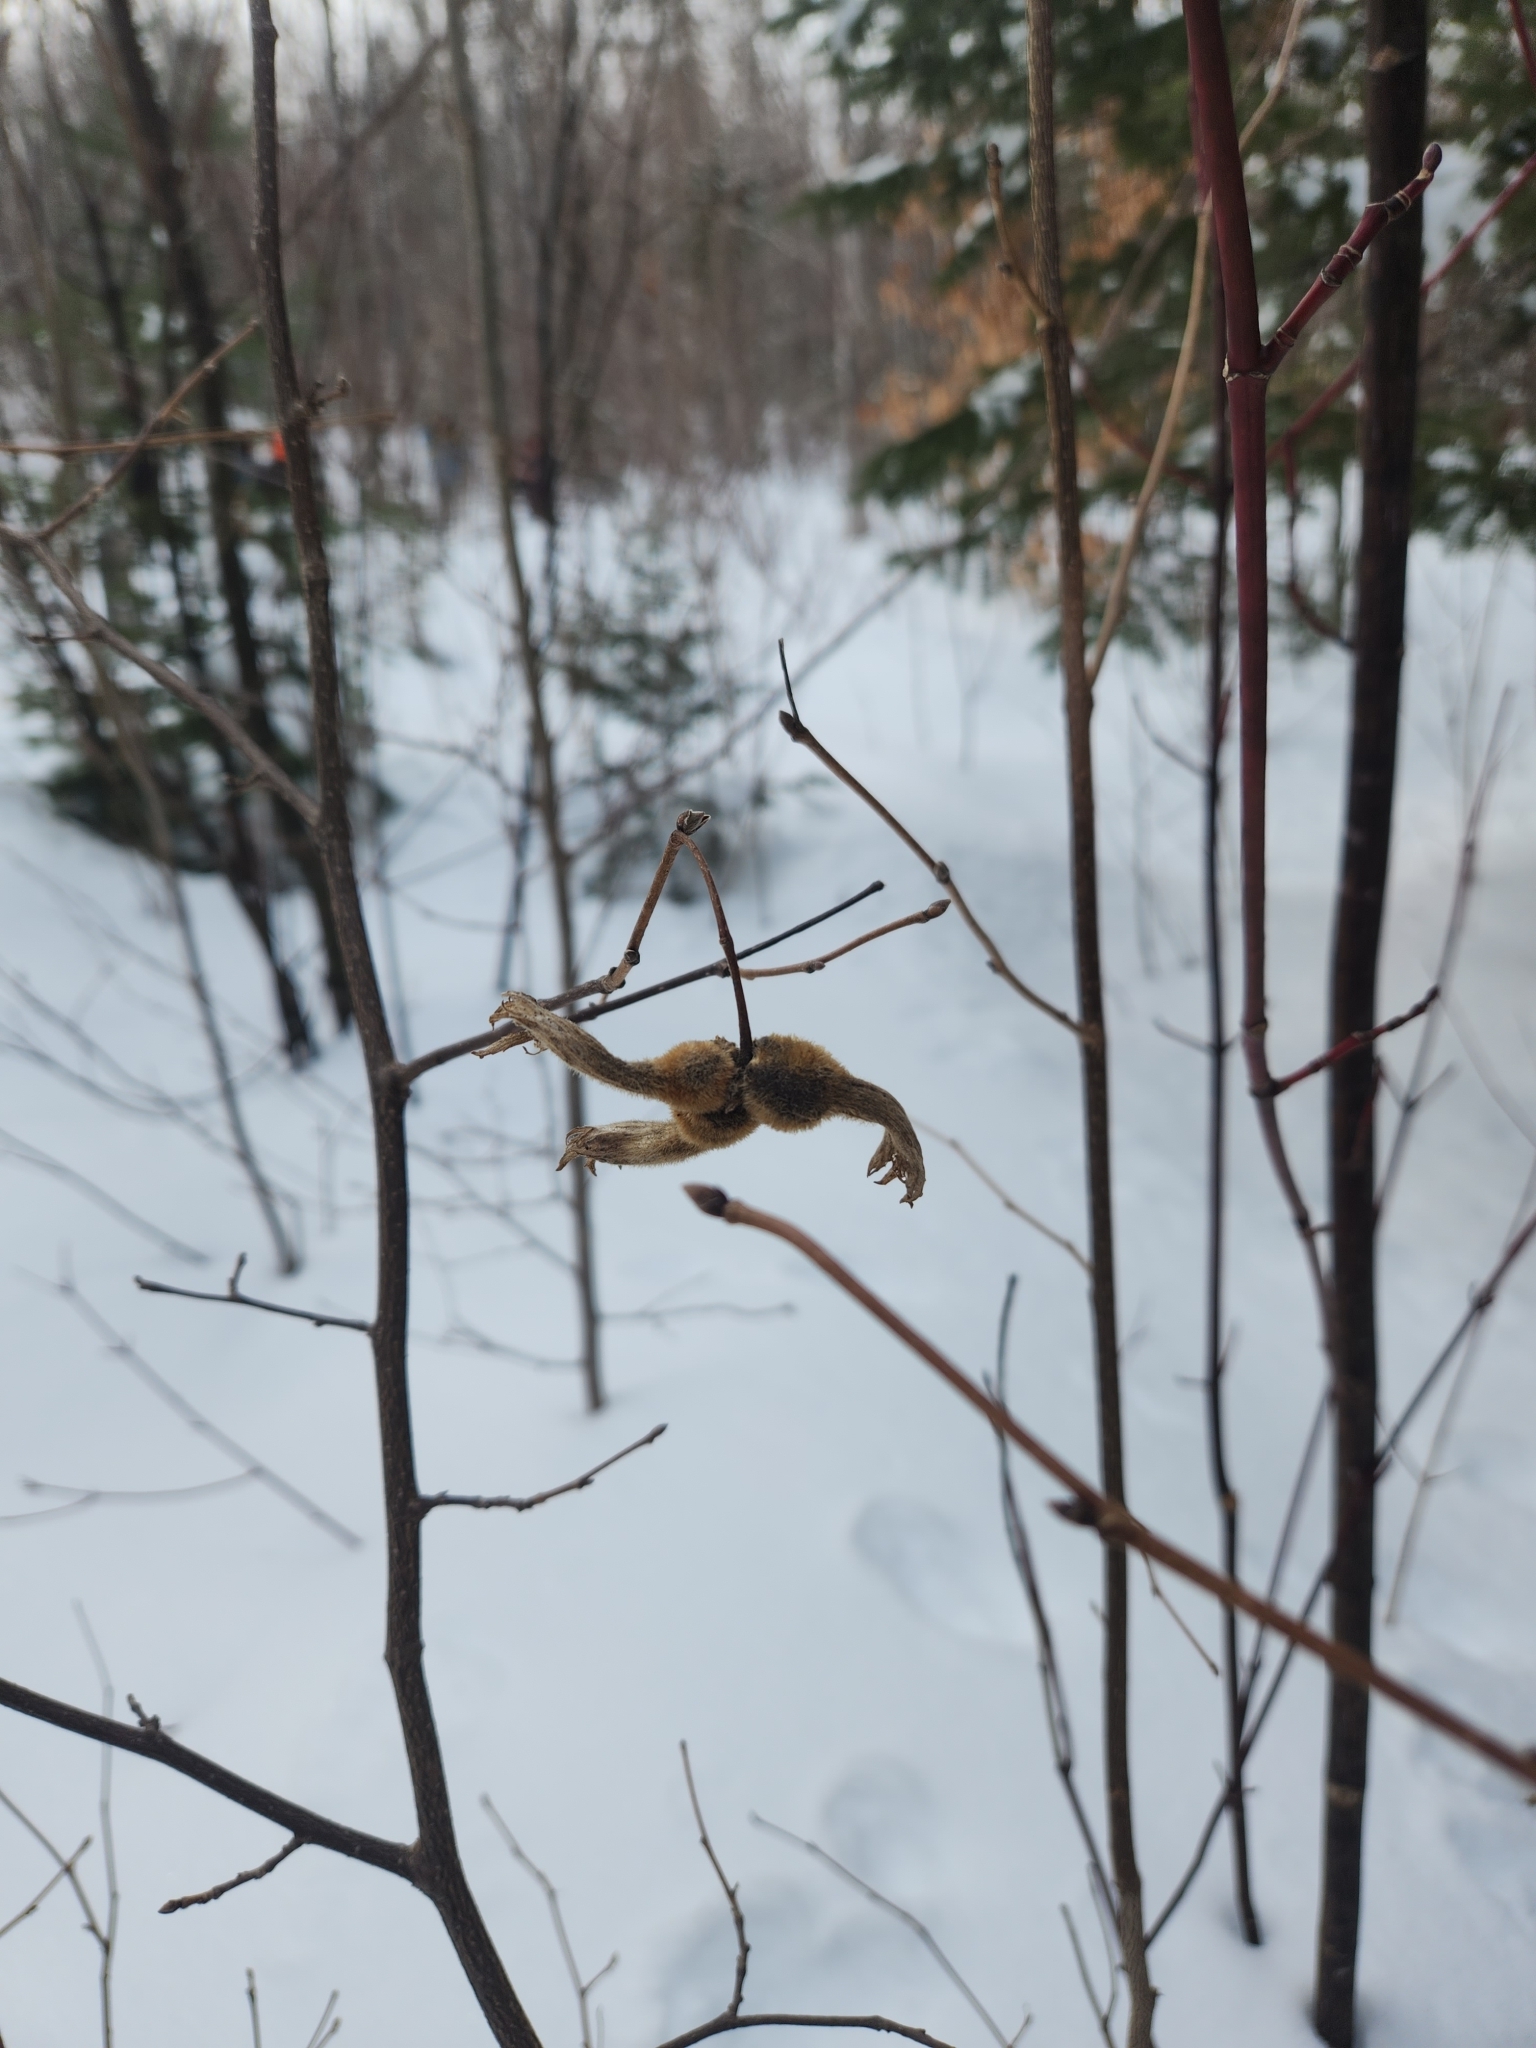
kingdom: Plantae
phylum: Tracheophyta
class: Magnoliopsida
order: Fagales
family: Betulaceae
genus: Corylus
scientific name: Corylus cornuta
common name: Beaked hazel
